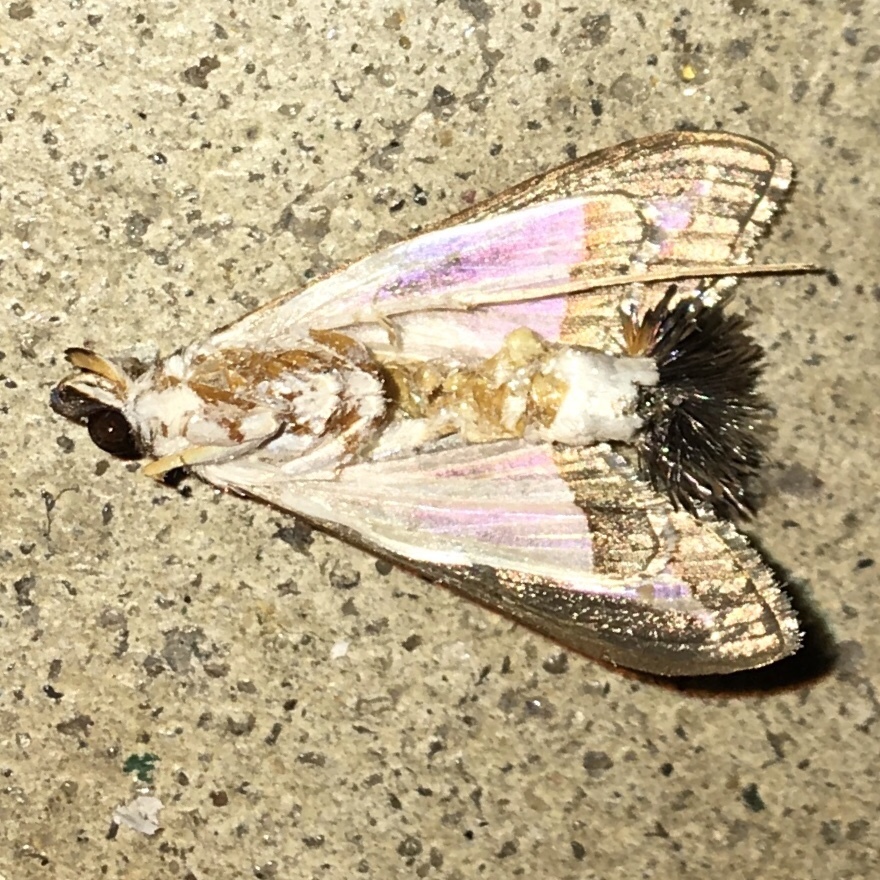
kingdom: Animalia
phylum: Arthropoda
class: Insecta
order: Lepidoptera
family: Crambidae
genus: Diaphania
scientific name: Diaphania hyalinata
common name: Melonworm
